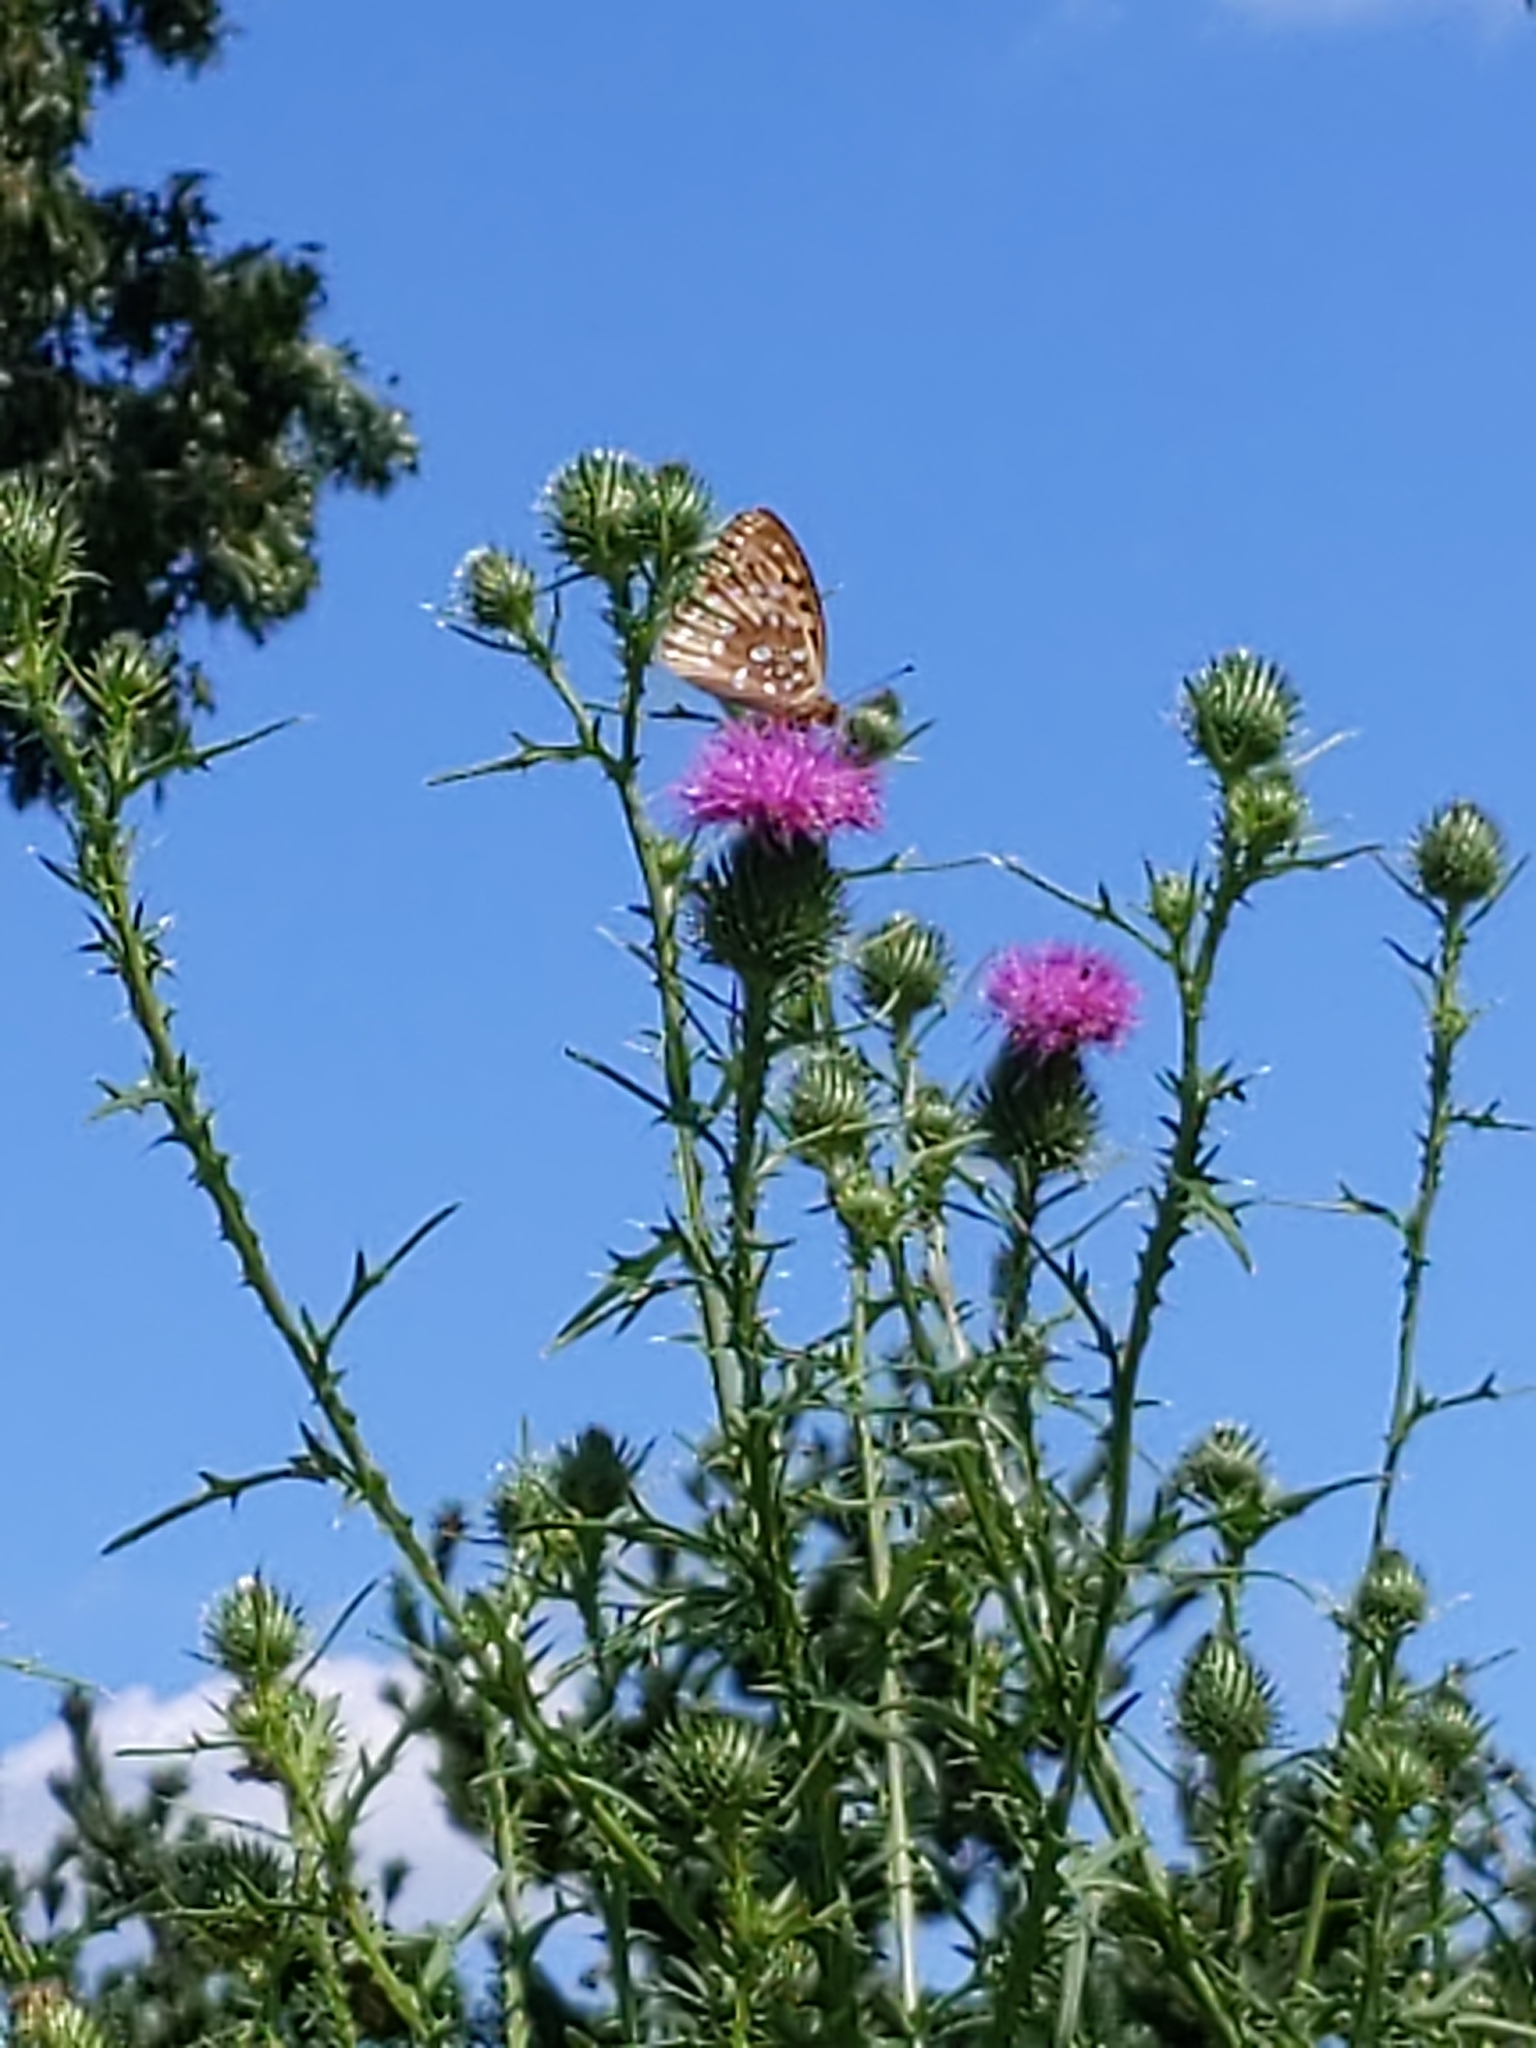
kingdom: Animalia
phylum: Arthropoda
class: Insecta
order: Lepidoptera
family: Nymphalidae
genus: Speyeria
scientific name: Speyeria cybele
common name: Great spangled fritillary
